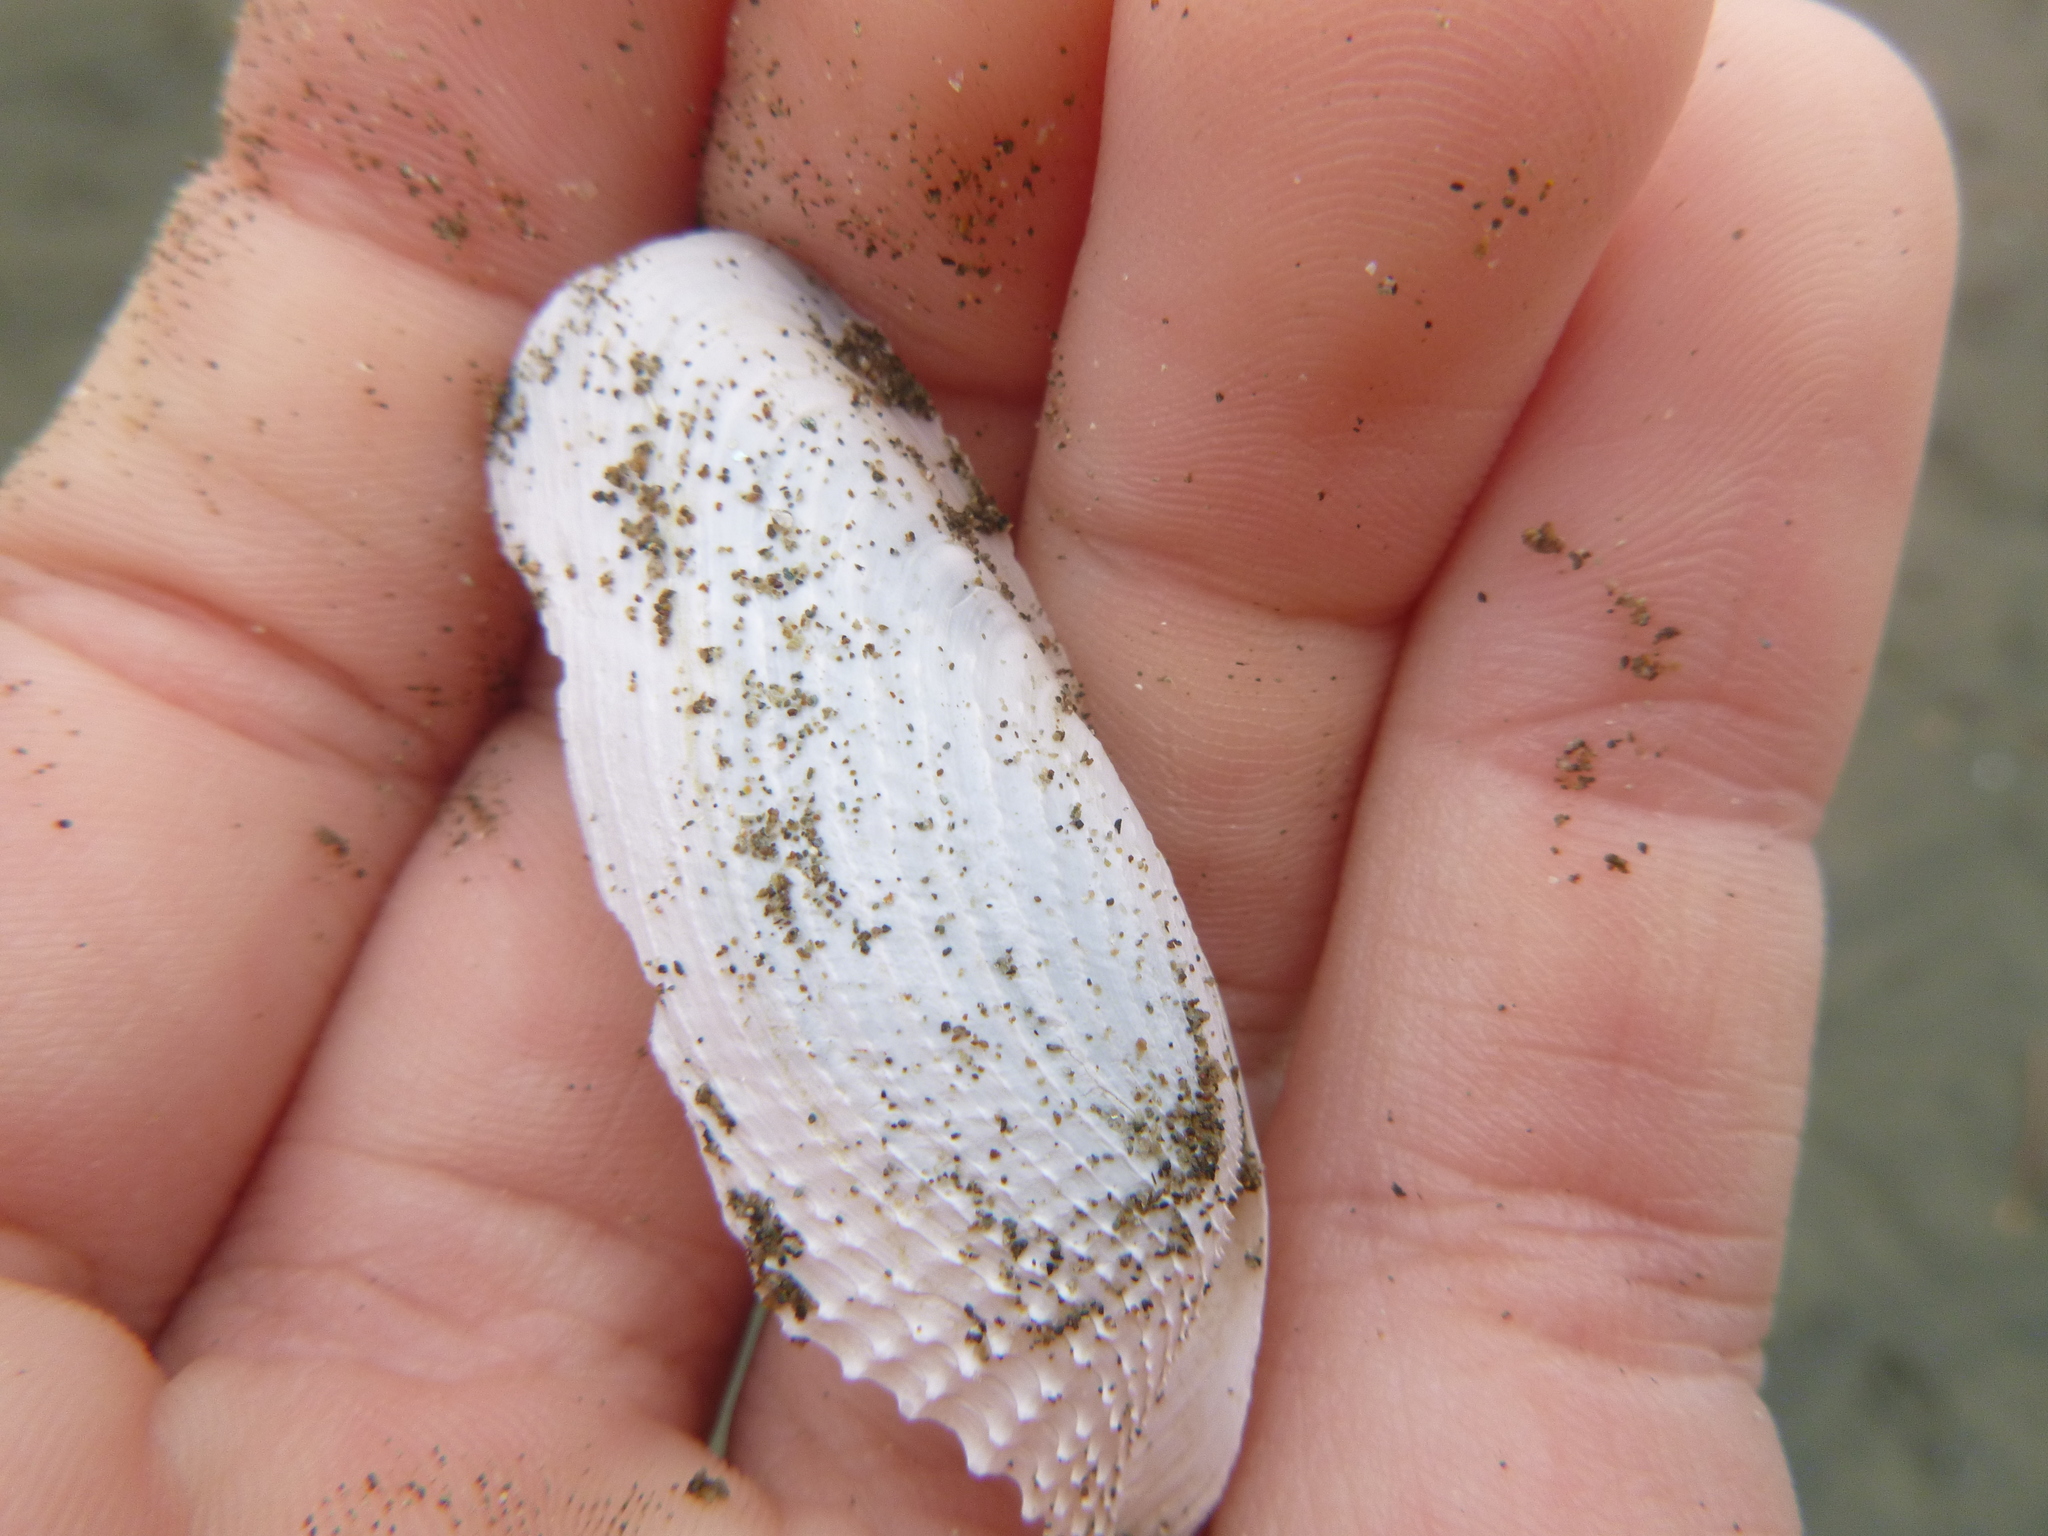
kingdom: Animalia
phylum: Mollusca
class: Bivalvia
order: Myida
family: Pholadidae
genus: Barnea
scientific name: Barnea similis
